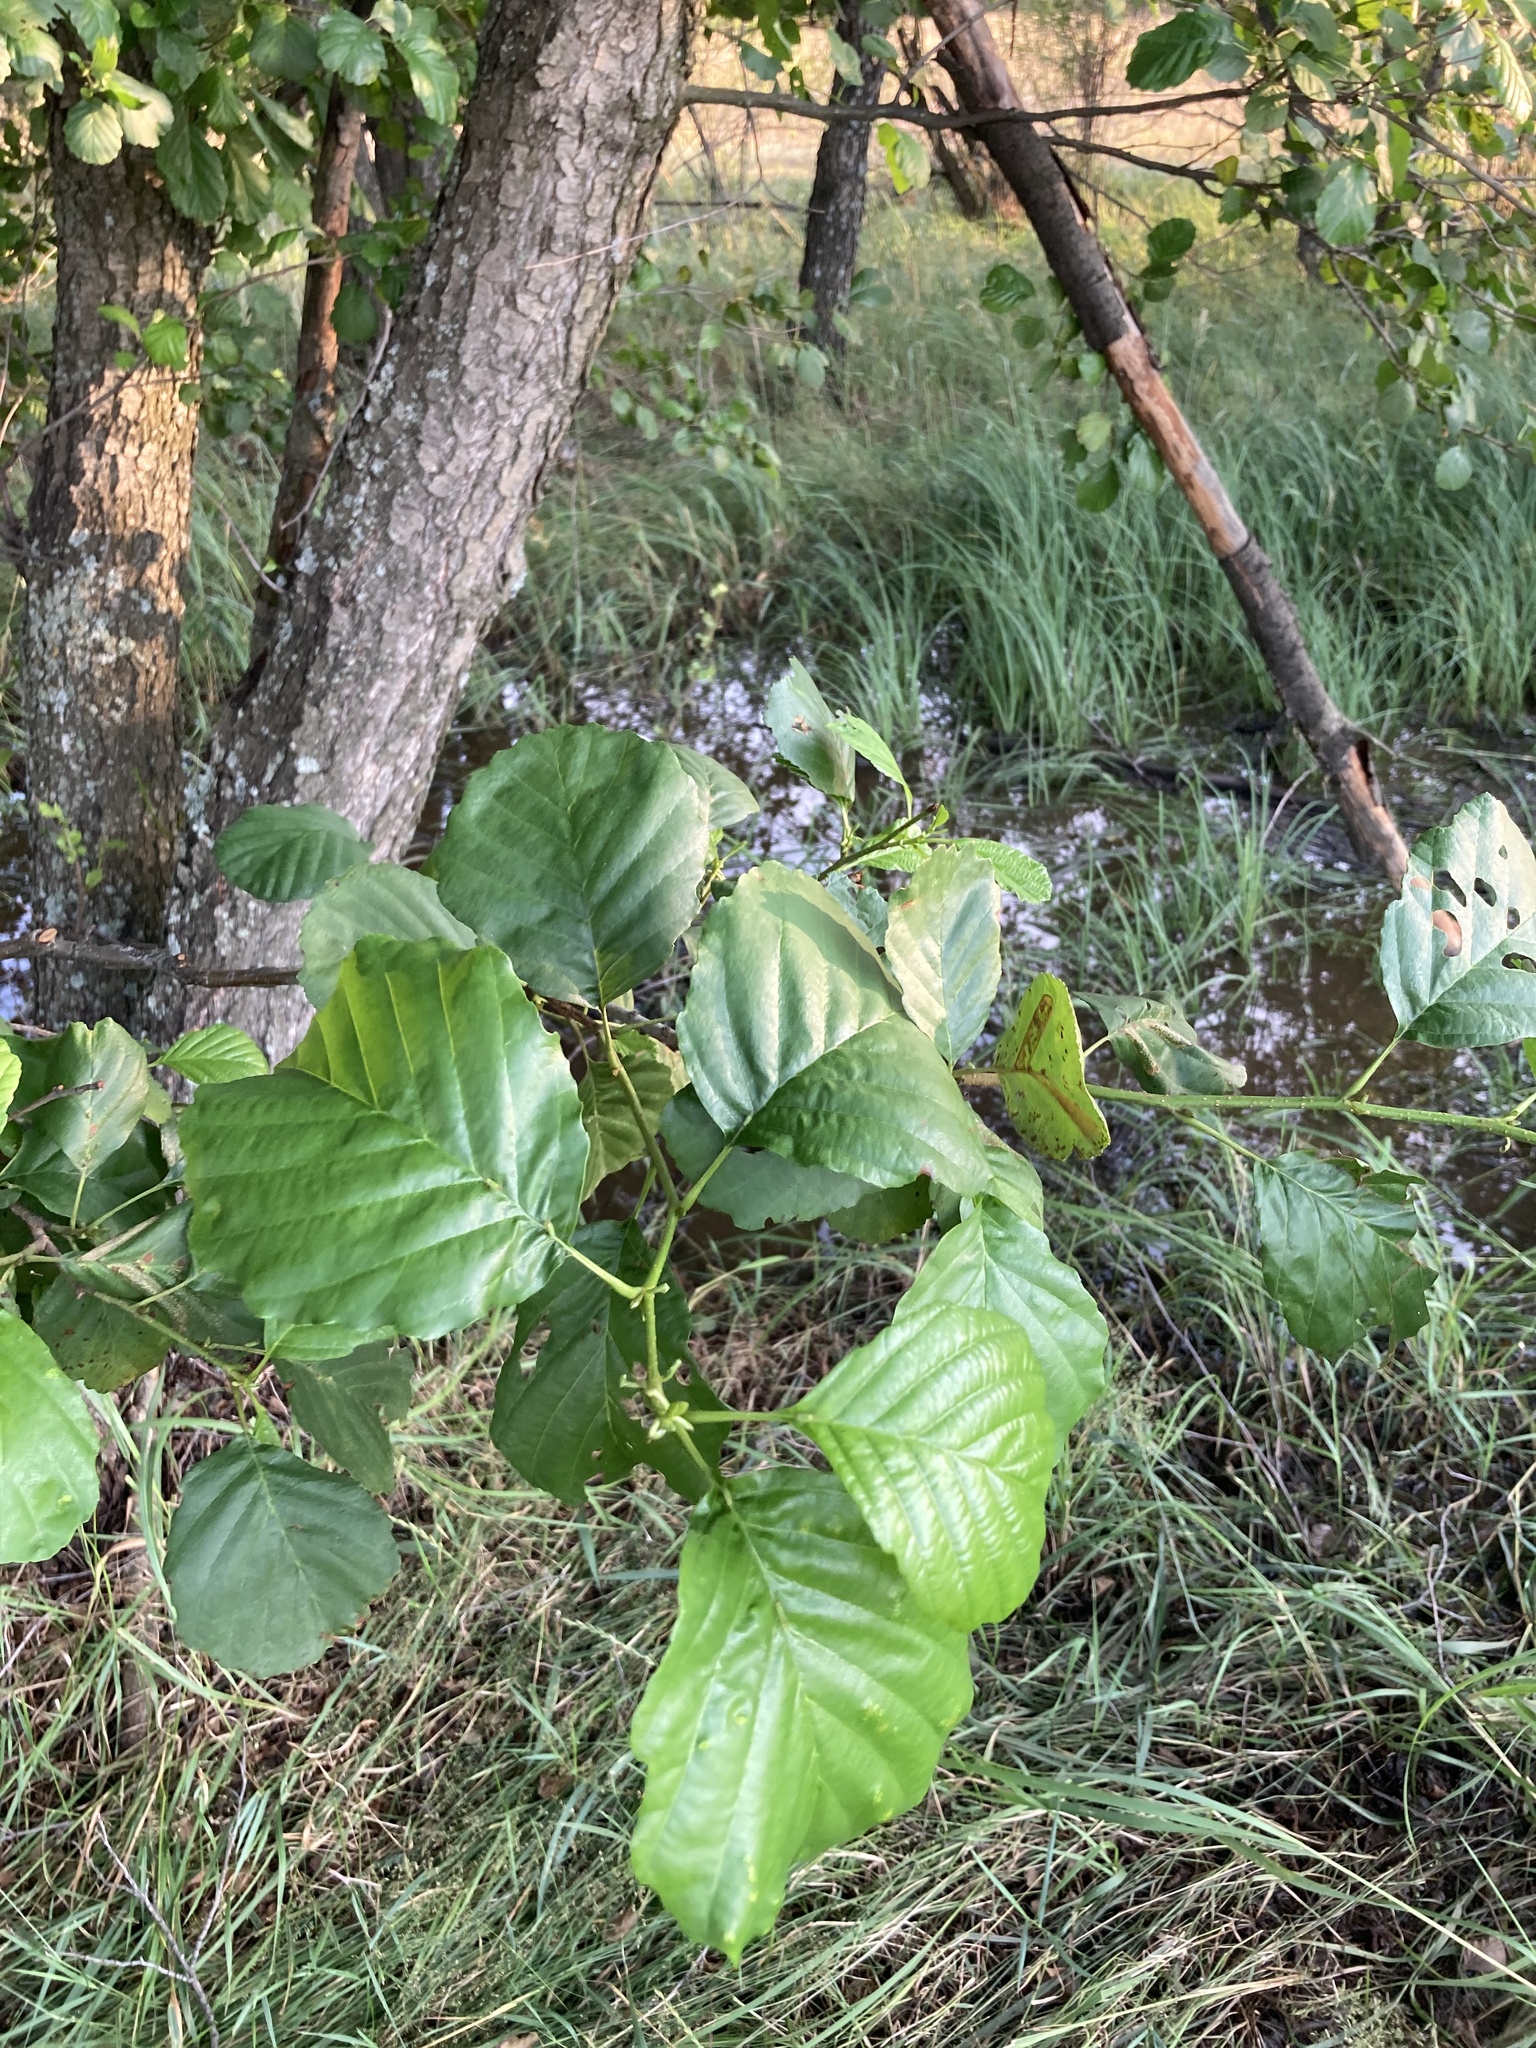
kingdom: Plantae
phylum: Tracheophyta
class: Magnoliopsida
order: Fagales
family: Betulaceae
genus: Alnus
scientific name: Alnus glutinosa
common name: Black alder
